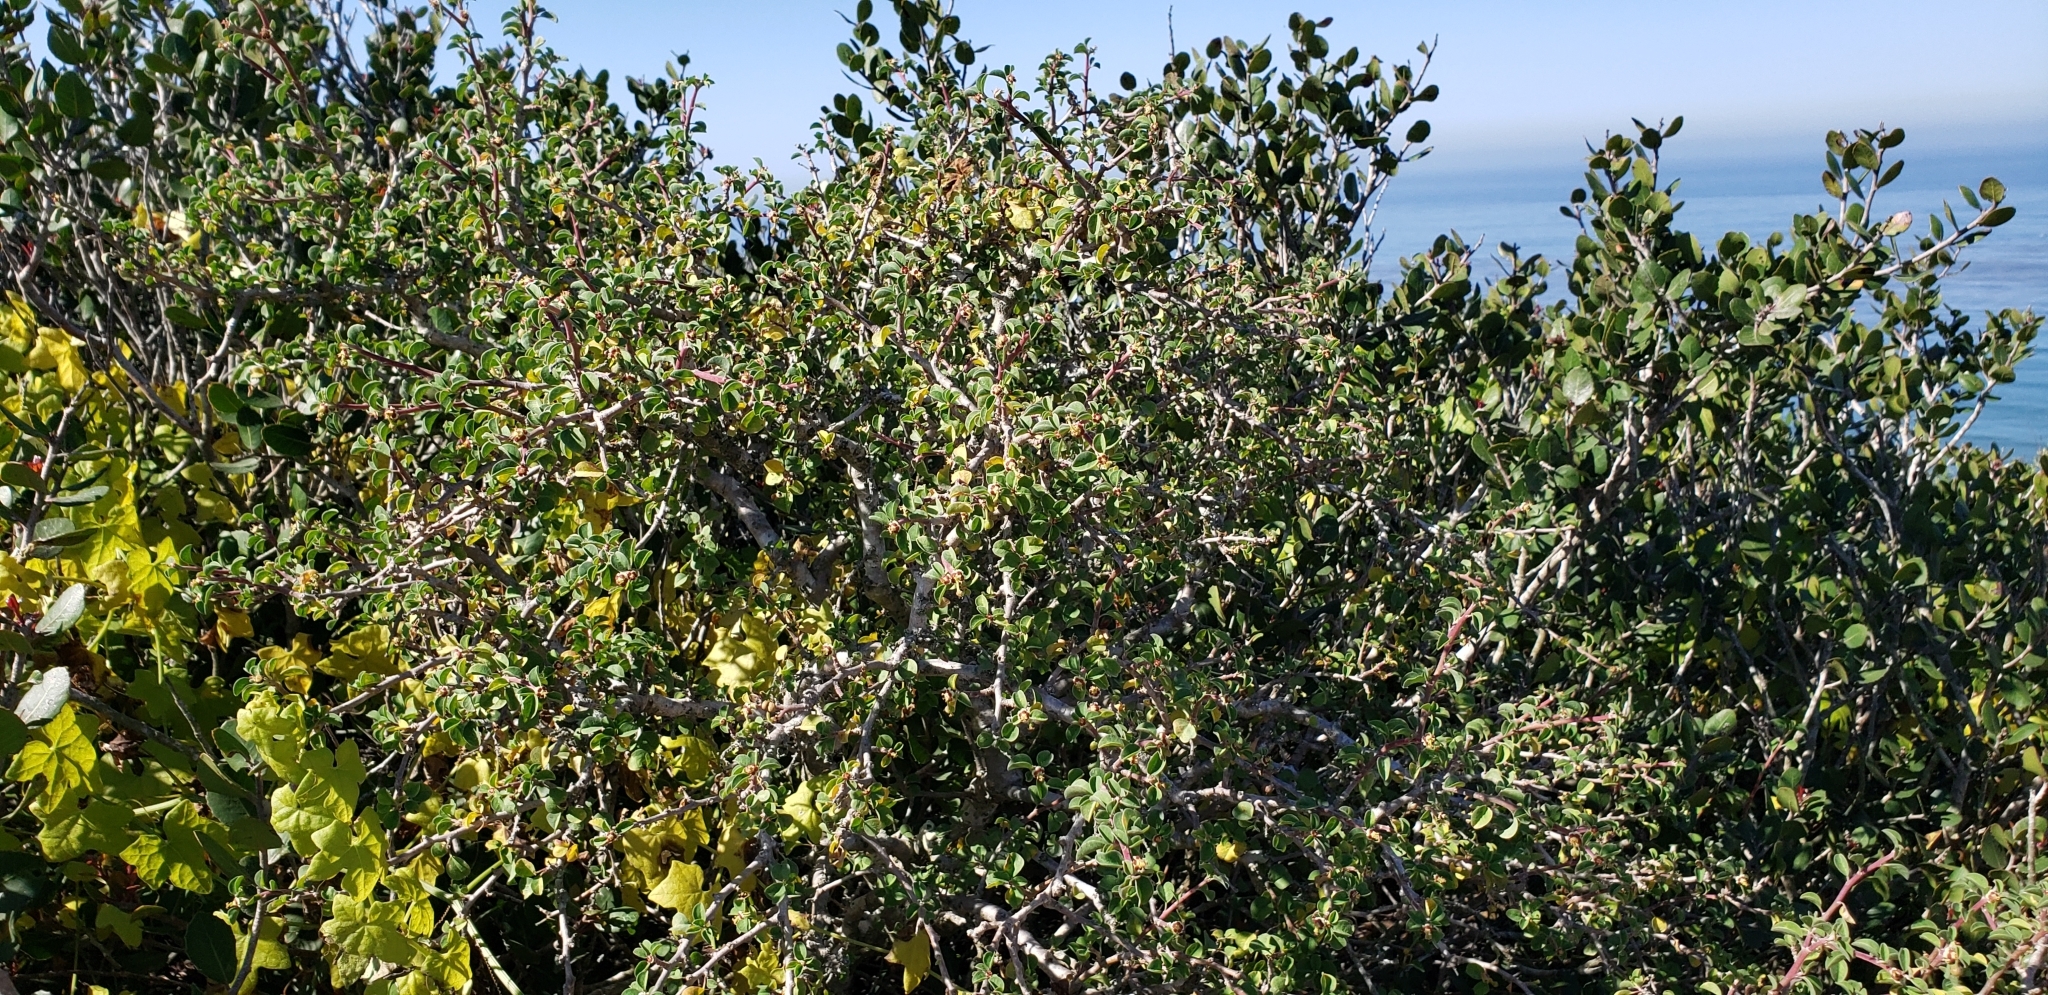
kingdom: Plantae
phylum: Tracheophyta
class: Magnoliopsida
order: Malpighiales
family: Euphorbiaceae
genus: Euphorbia
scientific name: Euphorbia misera
